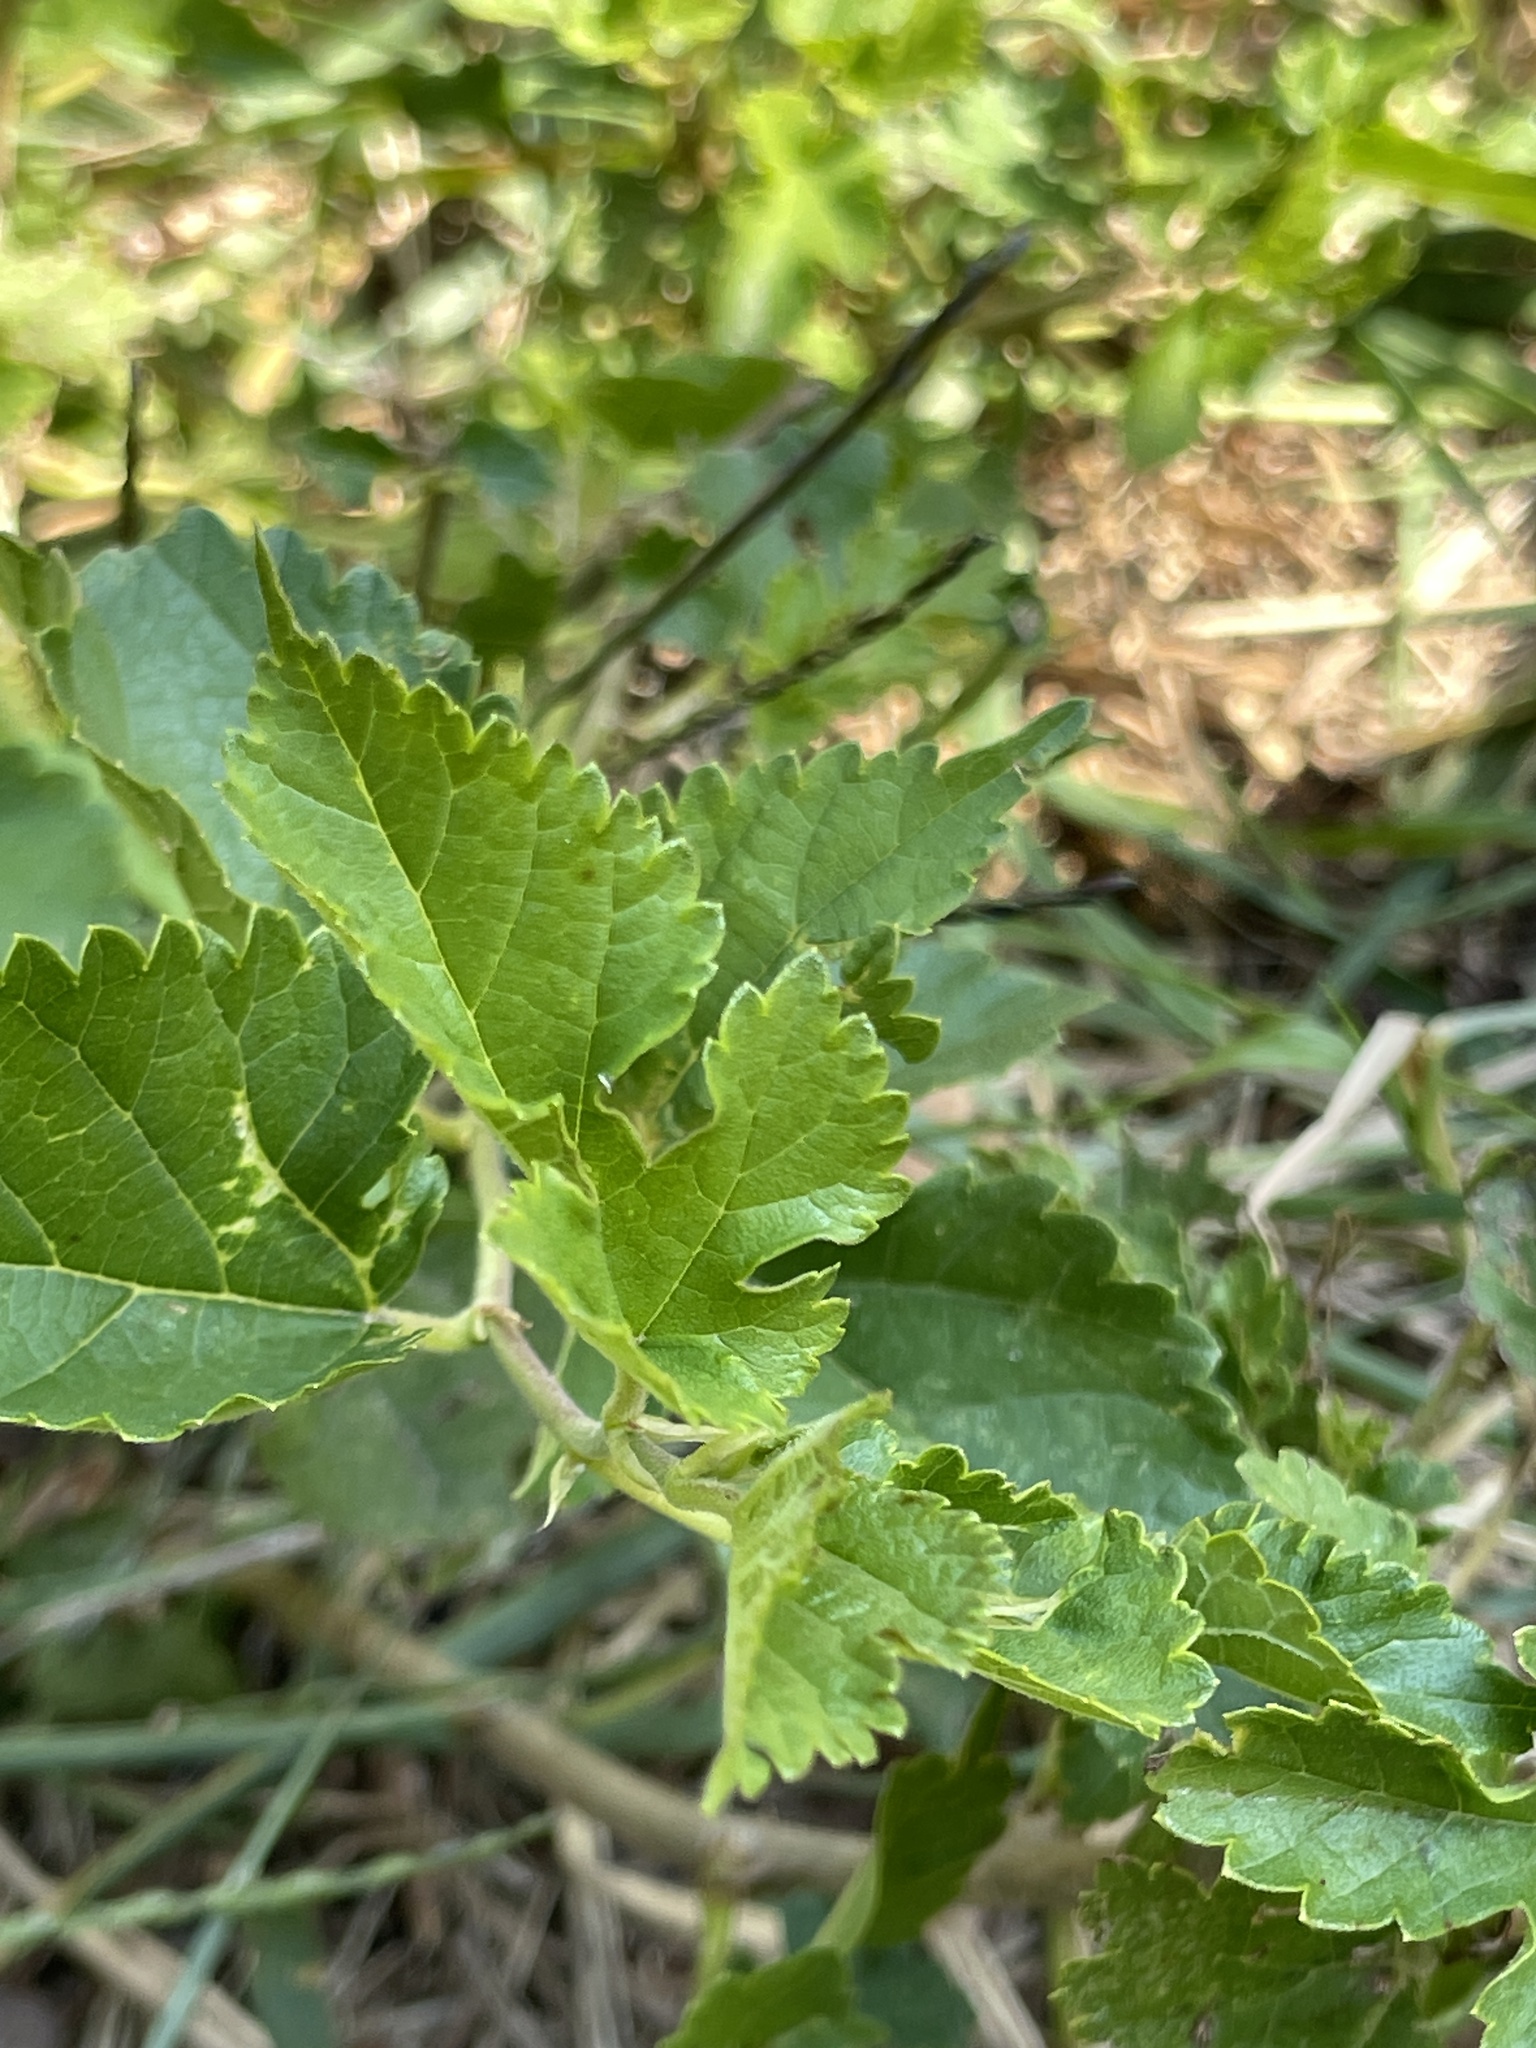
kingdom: Plantae
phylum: Tracheophyta
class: Magnoliopsida
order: Rosales
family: Moraceae
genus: Morus
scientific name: Morus alba
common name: White mulberry
